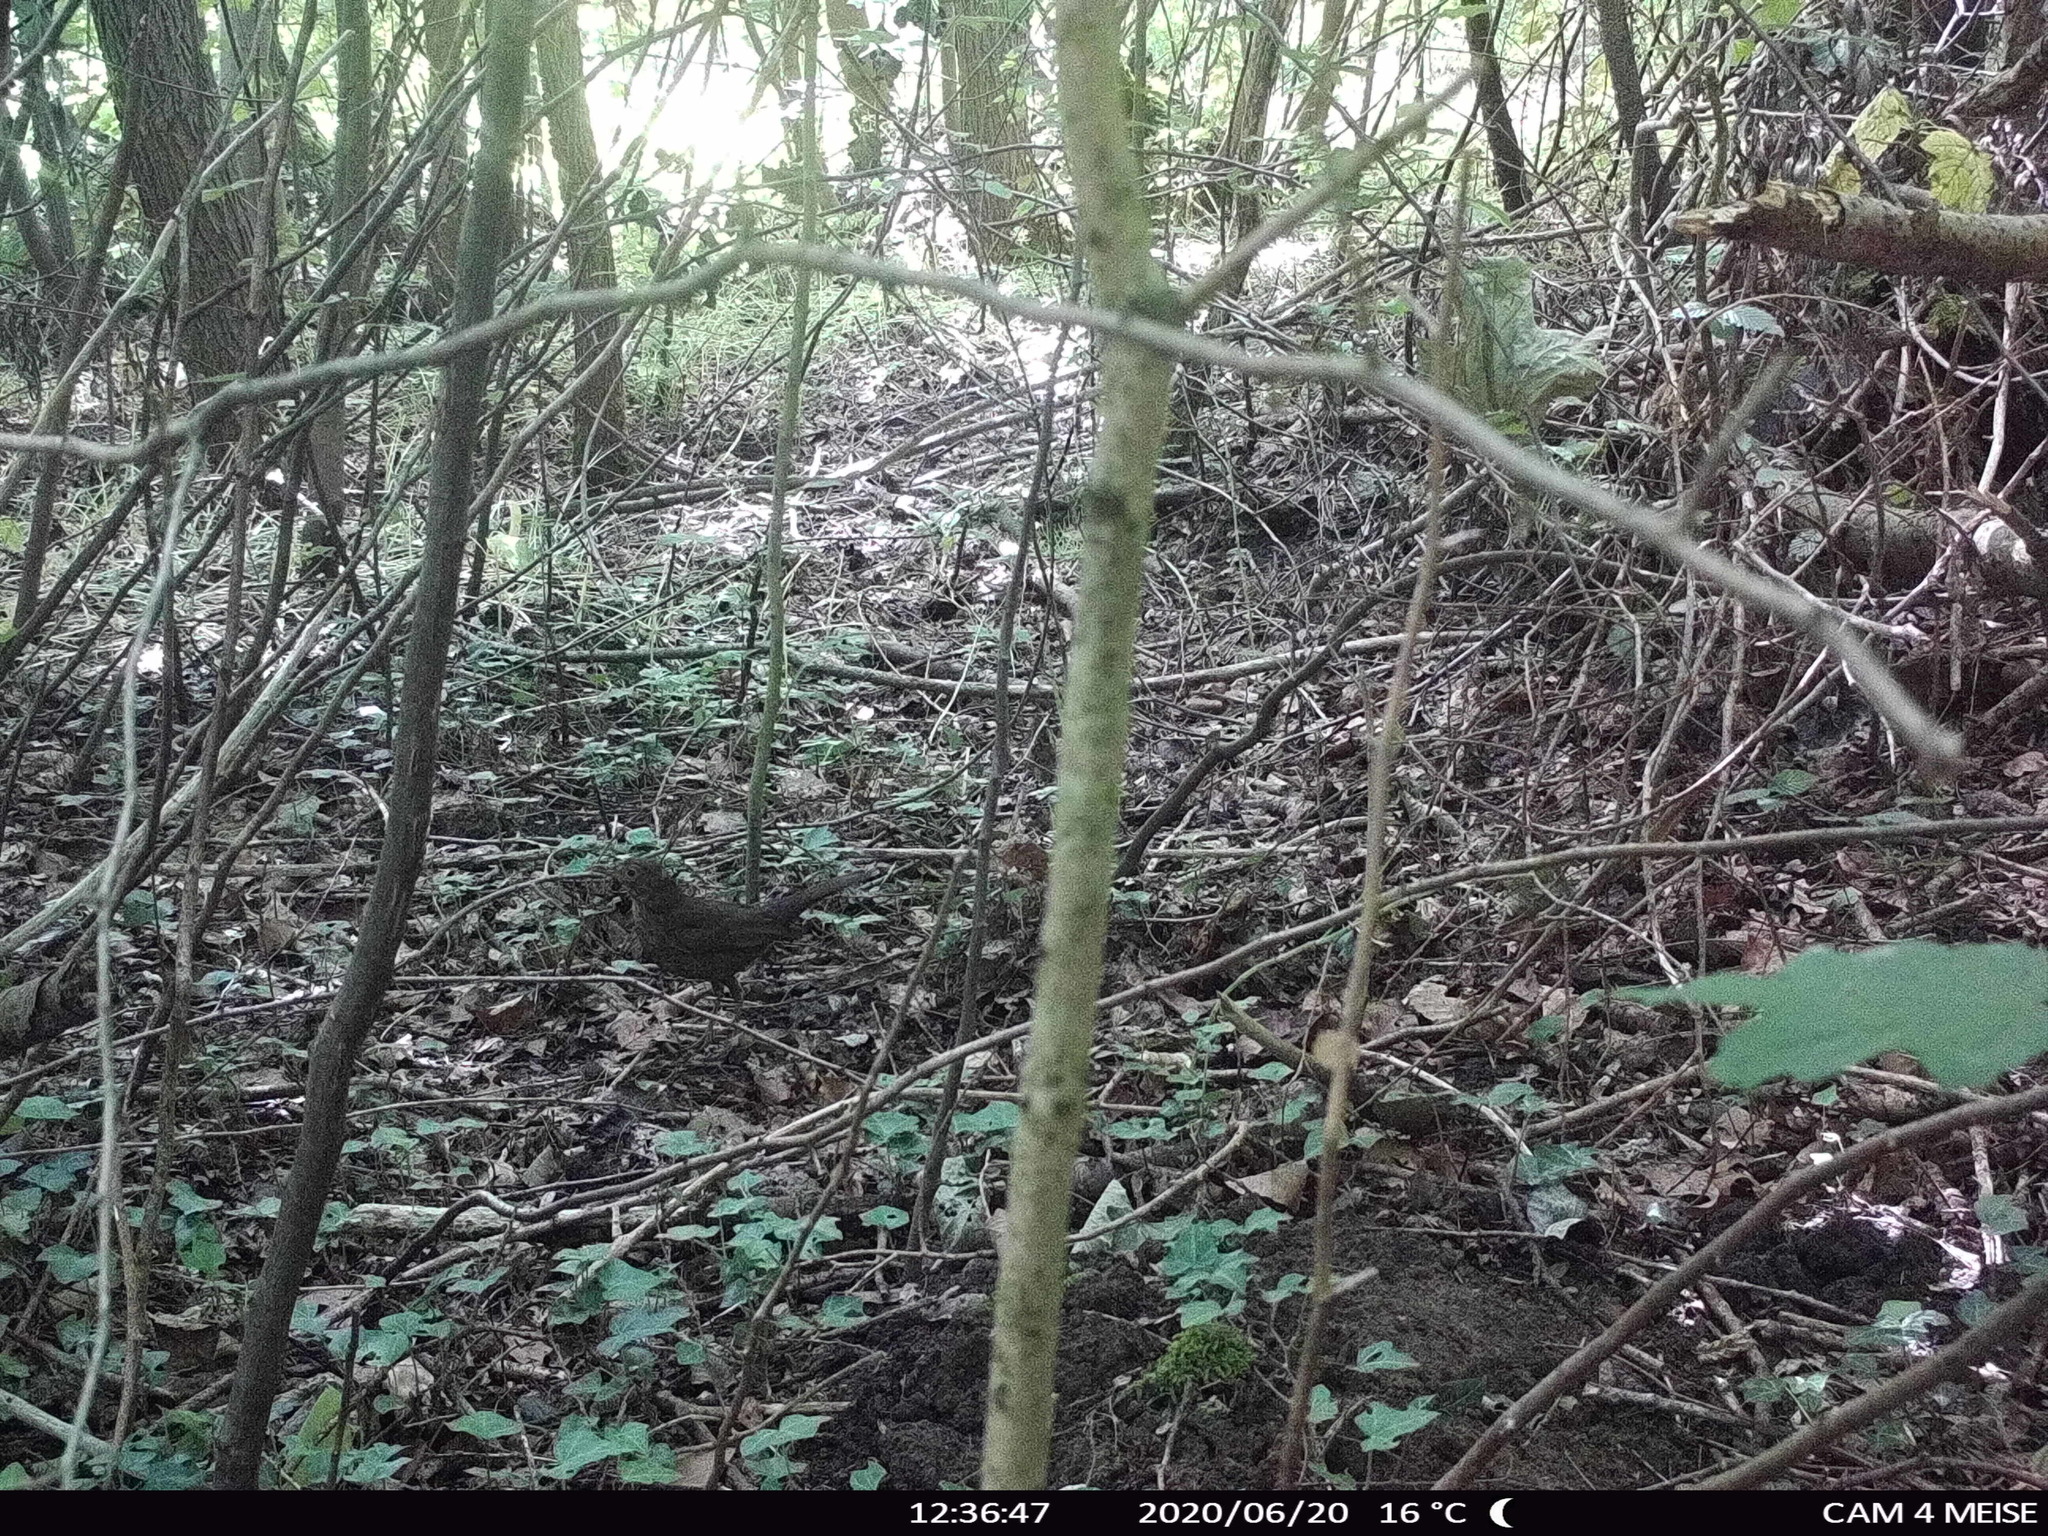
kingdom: Animalia
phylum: Chordata
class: Aves
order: Passeriformes
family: Turdidae
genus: Turdus
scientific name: Turdus merula
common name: Common blackbird
